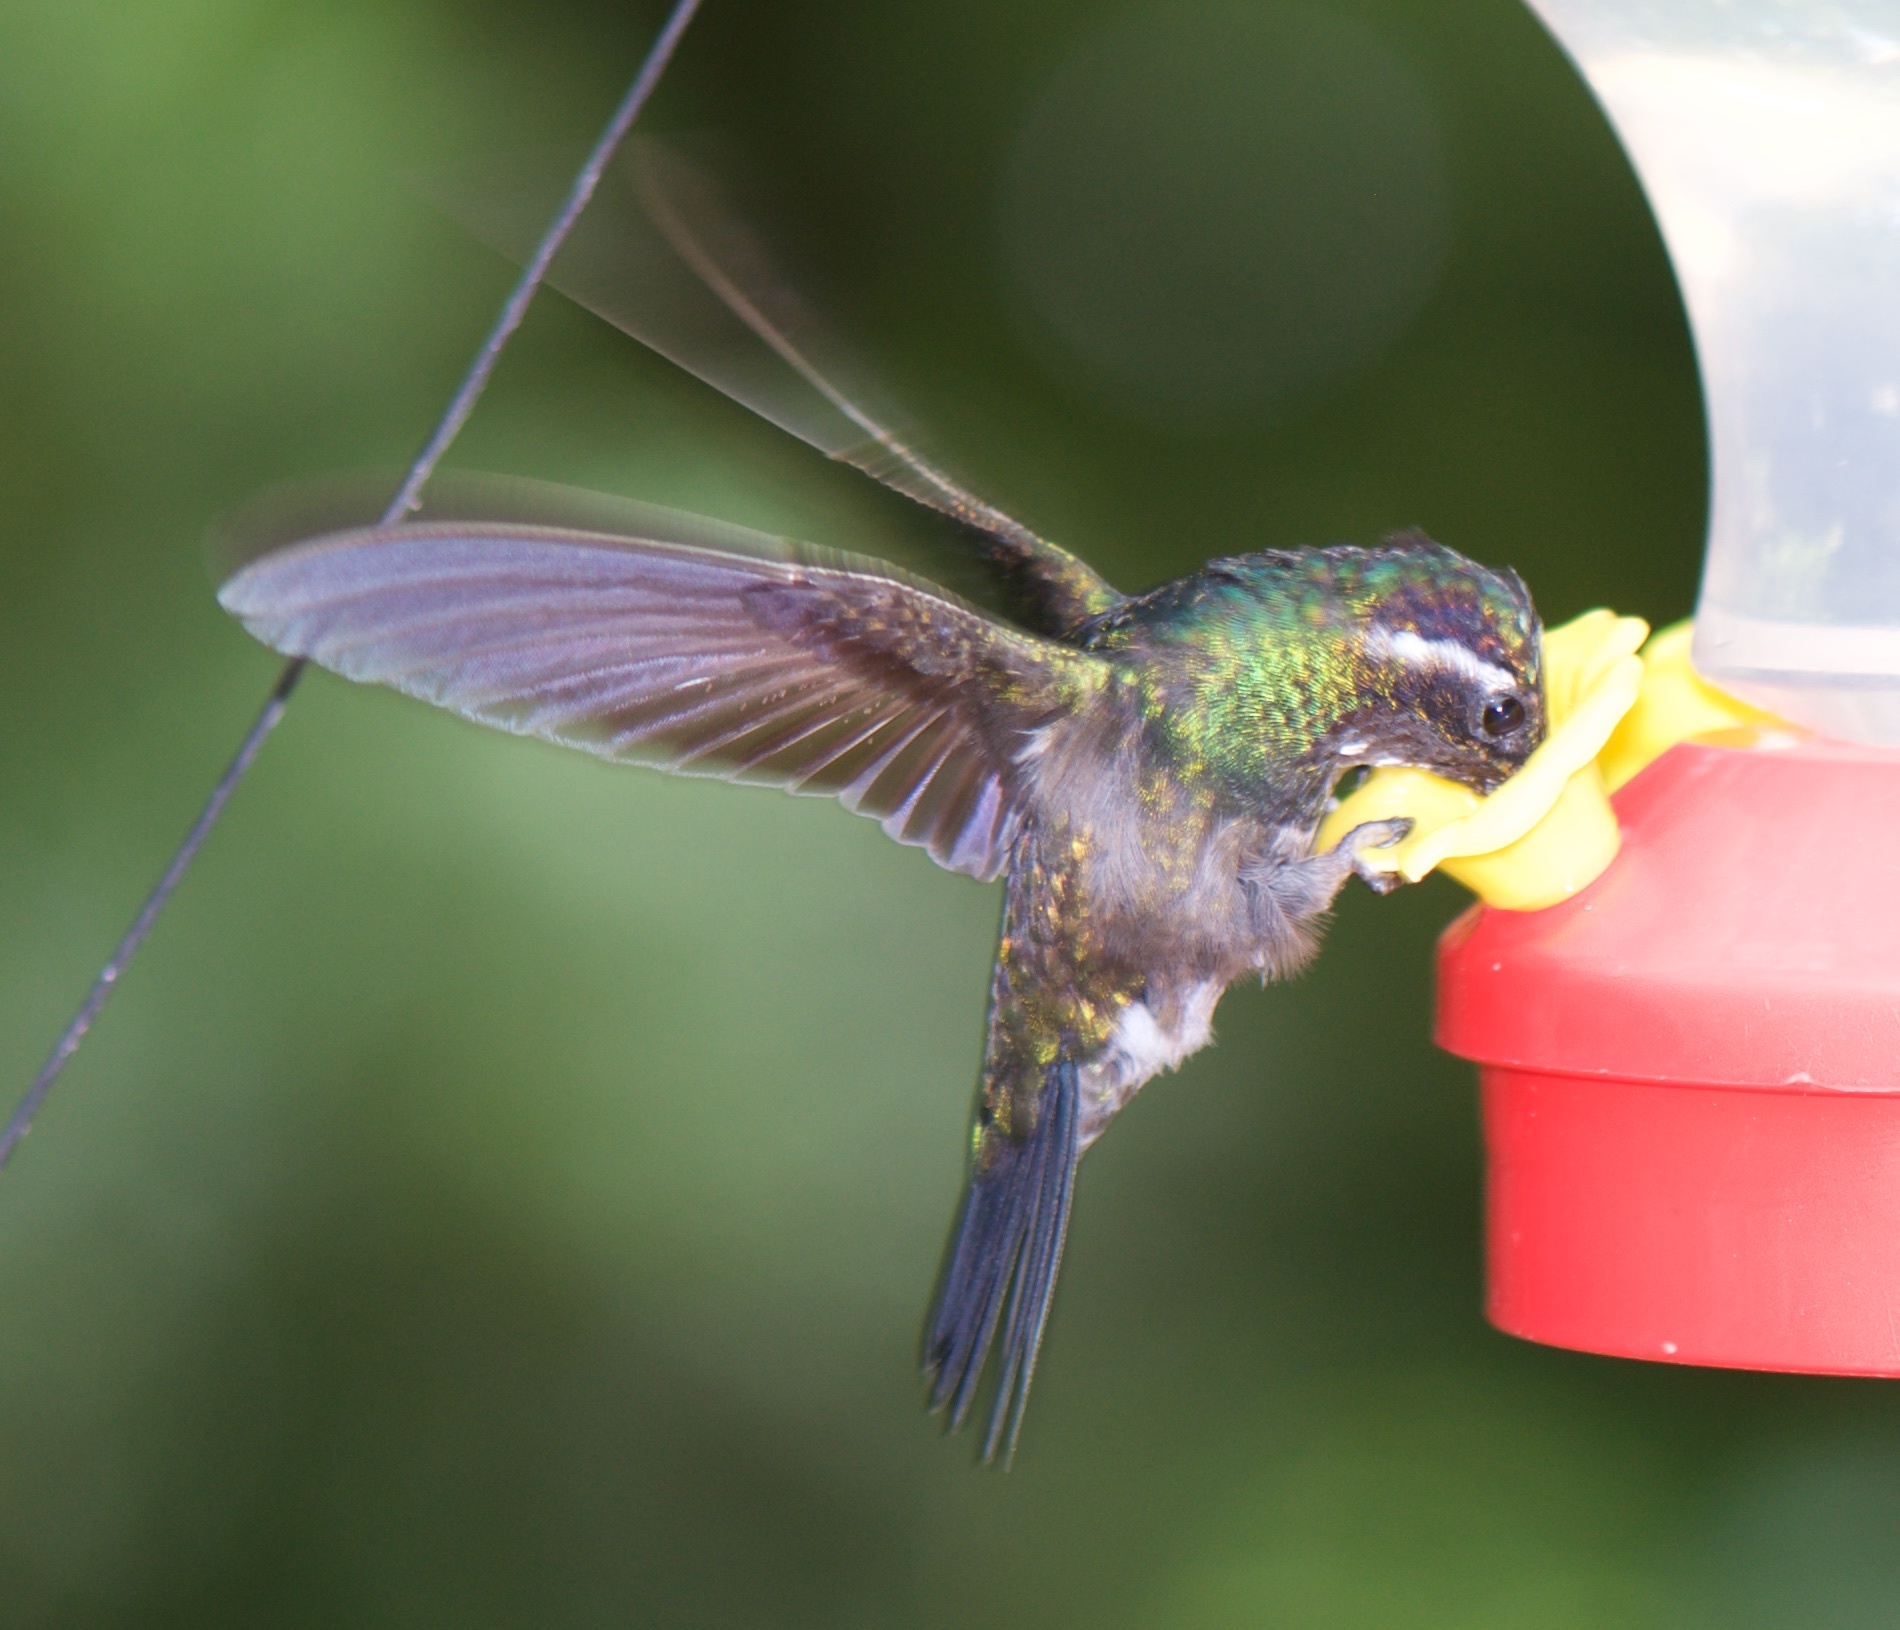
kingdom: Animalia
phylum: Chordata
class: Aves
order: Apodiformes
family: Trochilidae
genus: Lampornis
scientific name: Lampornis calolaemus
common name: Purple-throated mountain-gem
